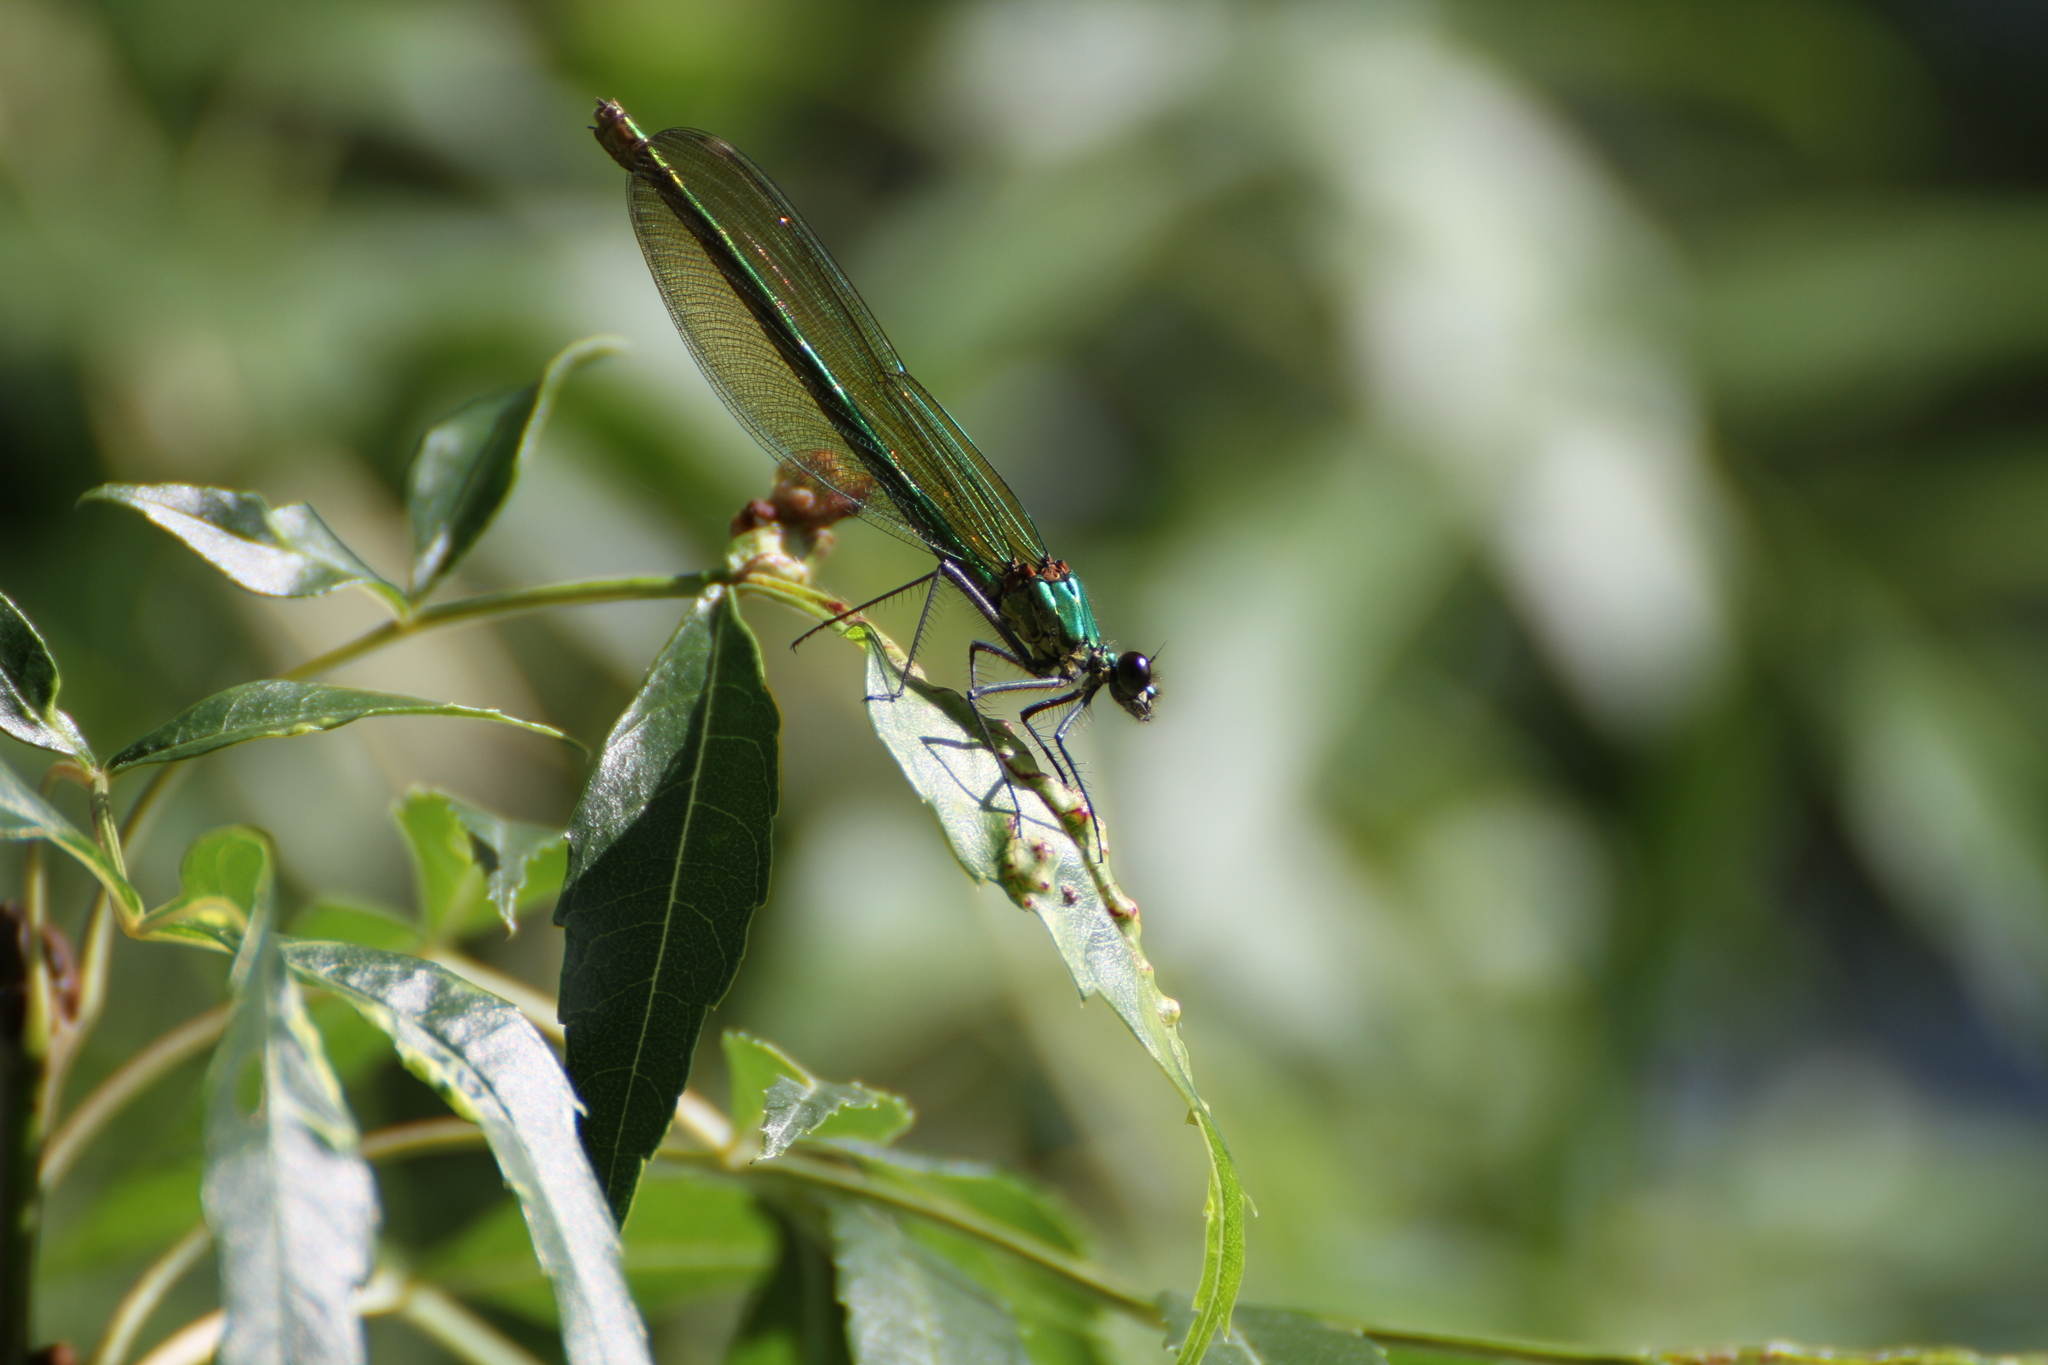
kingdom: Animalia
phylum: Arthropoda
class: Insecta
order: Odonata
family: Calopterygidae
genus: Calopteryx
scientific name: Calopteryx splendens
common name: Banded demoiselle
